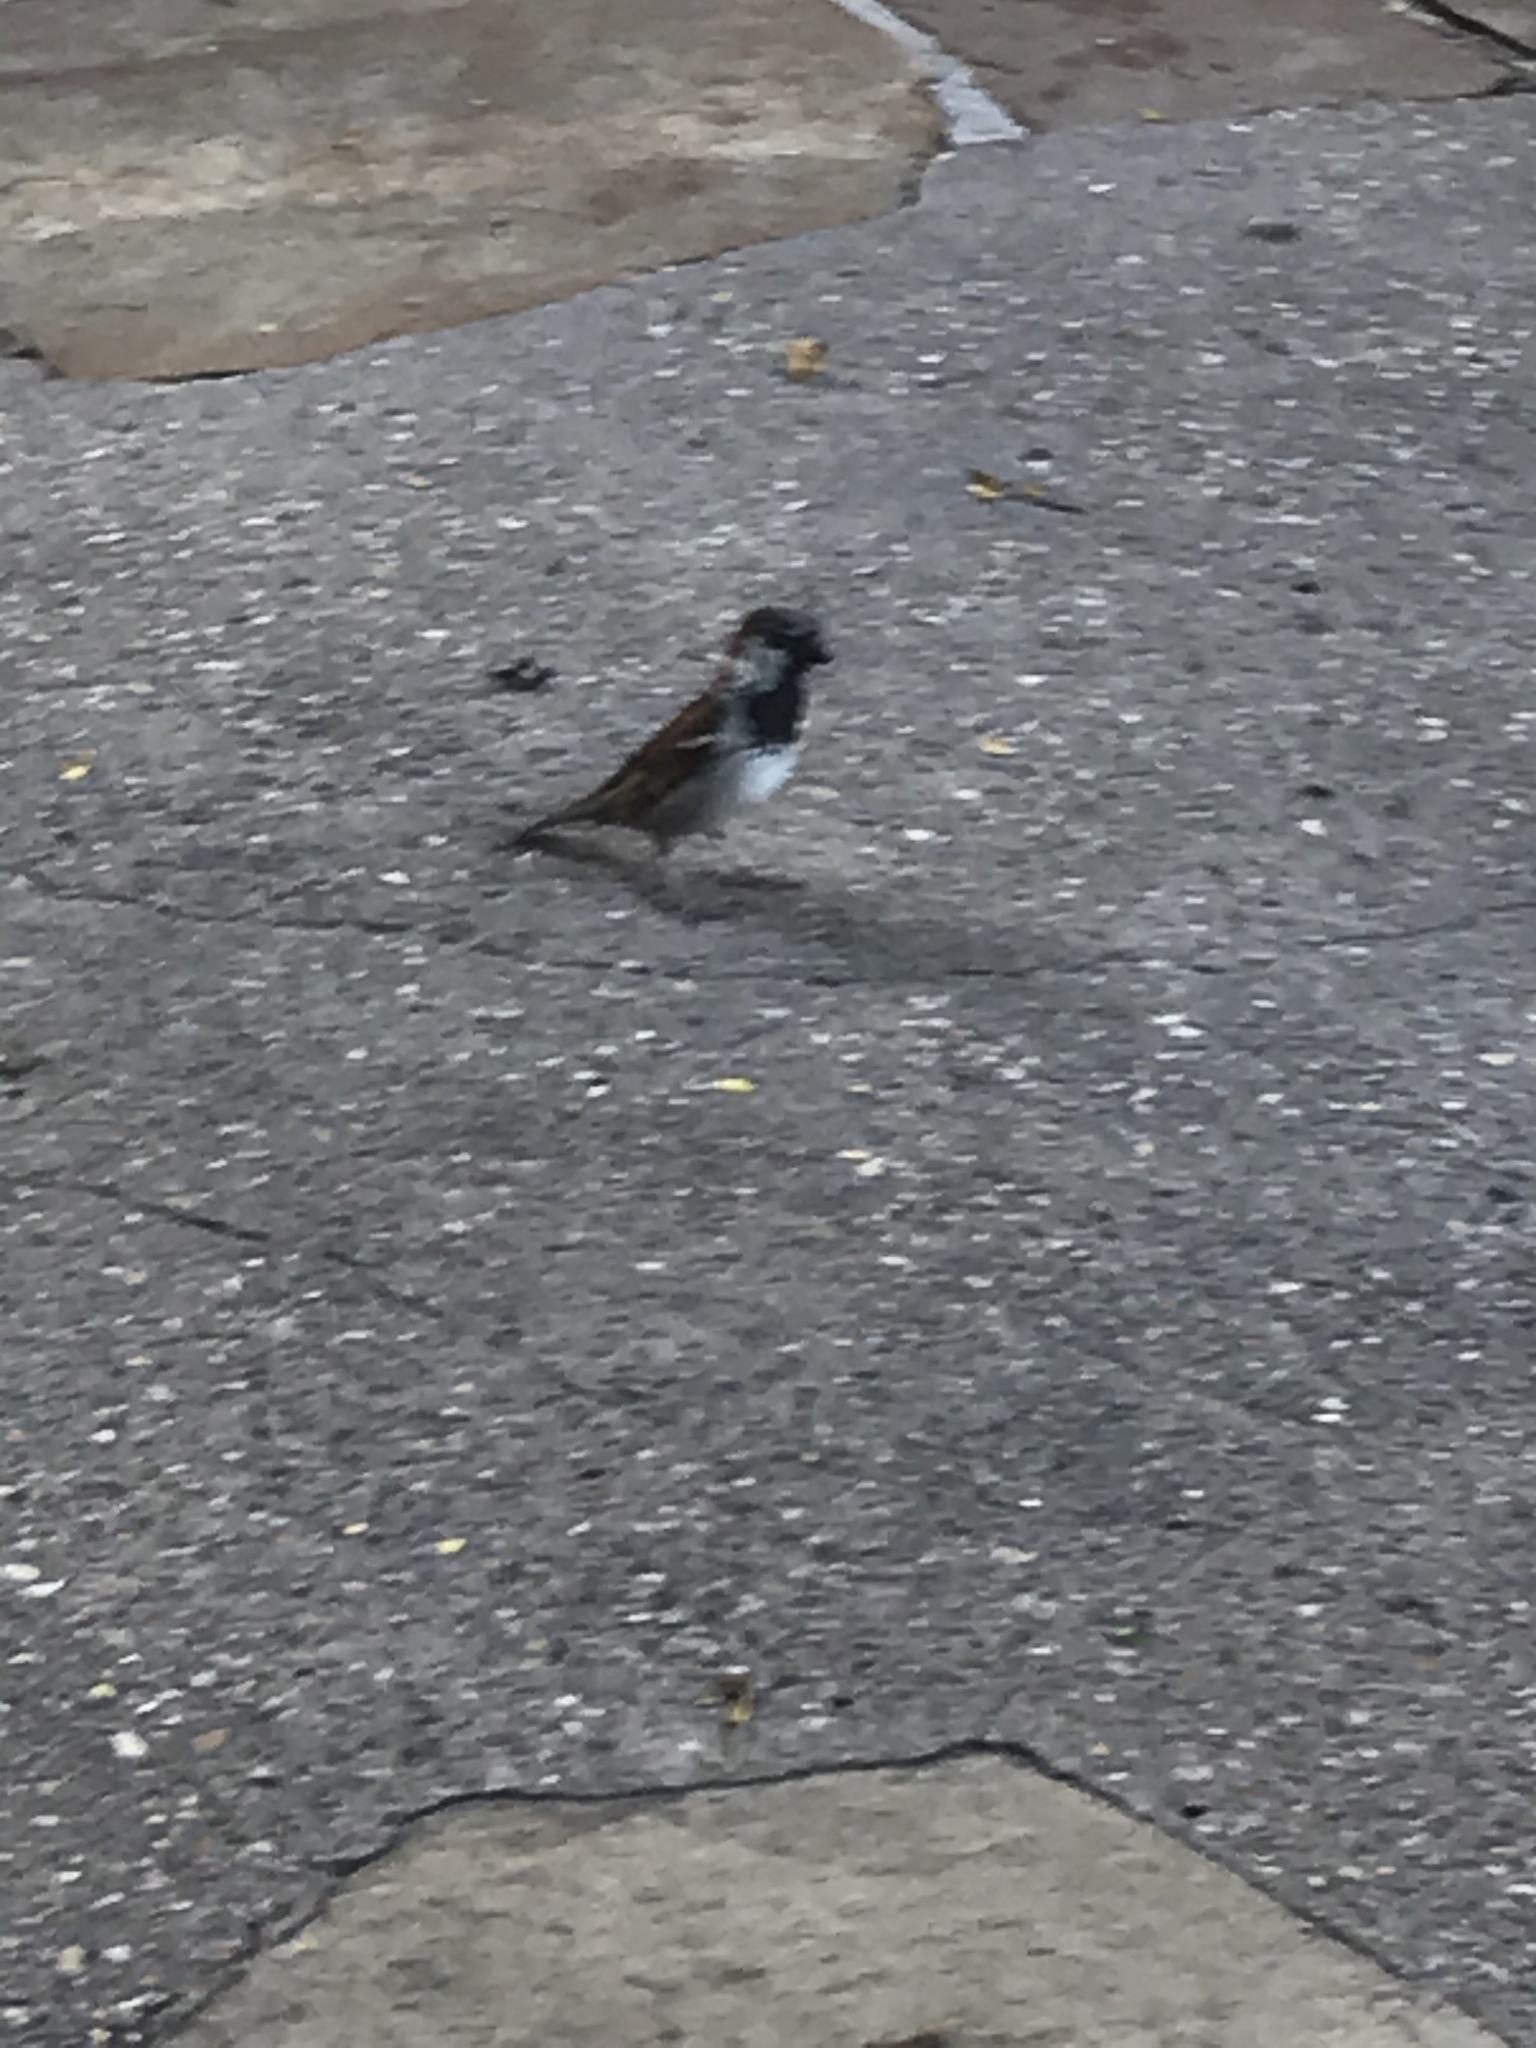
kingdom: Animalia
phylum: Chordata
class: Aves
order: Passeriformes
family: Passeridae
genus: Passer
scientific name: Passer domesticus
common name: House sparrow
